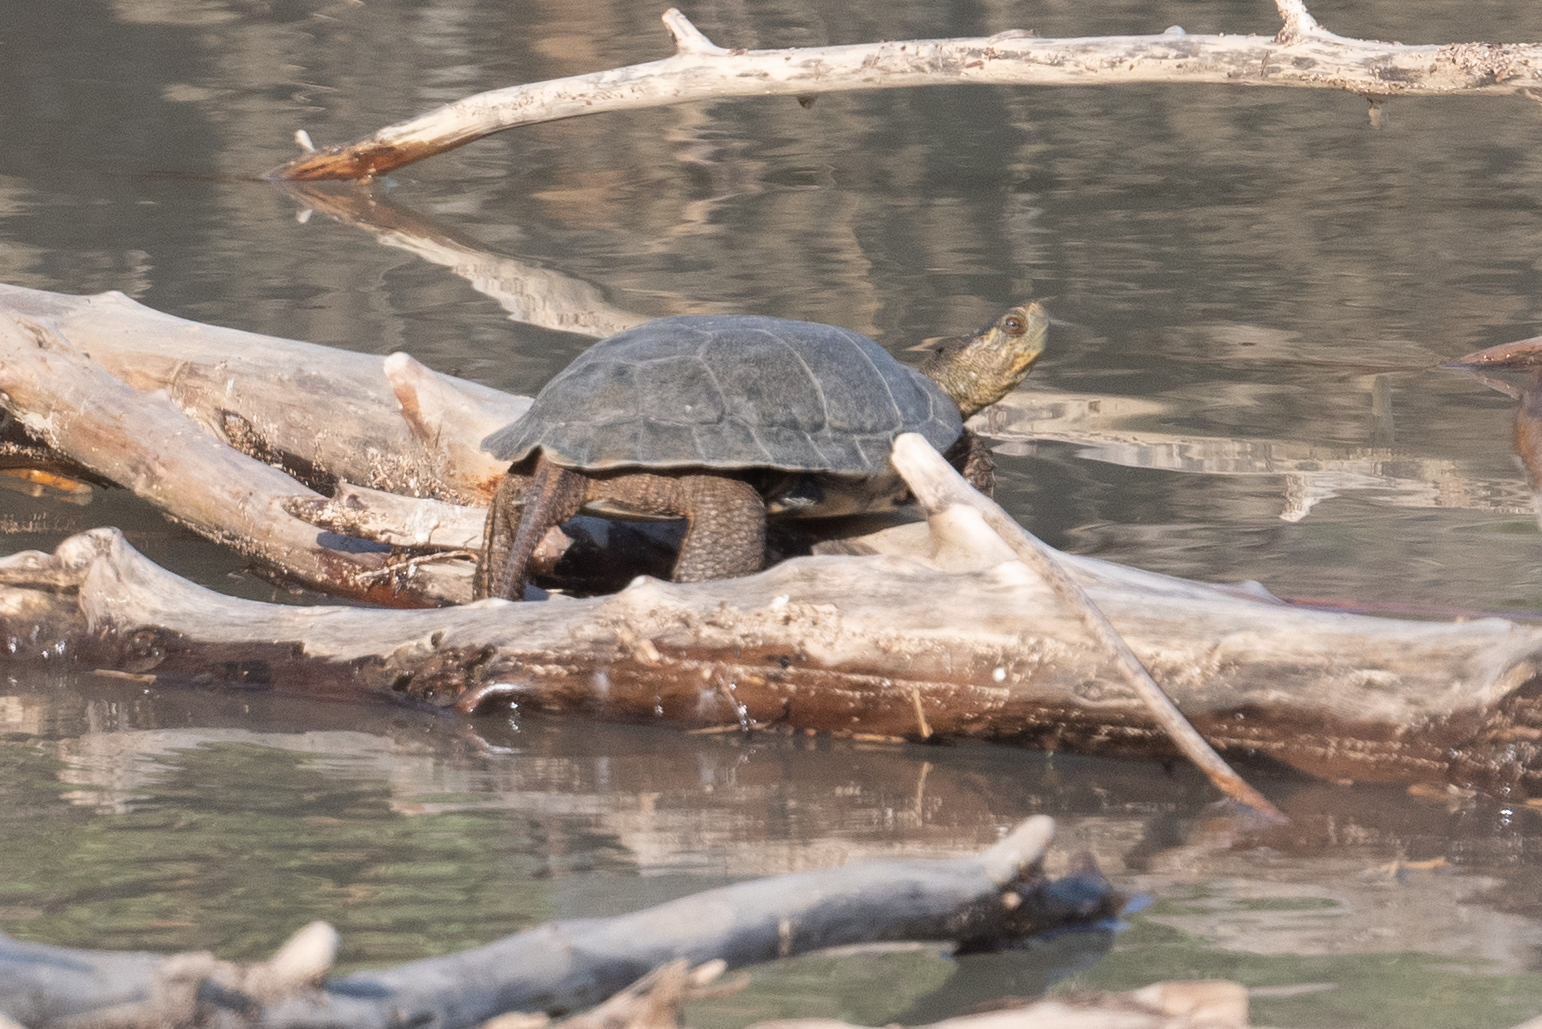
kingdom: Animalia
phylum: Chordata
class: Testudines
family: Emydidae
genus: Actinemys
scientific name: Actinemys marmorata
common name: Western pond turtle
